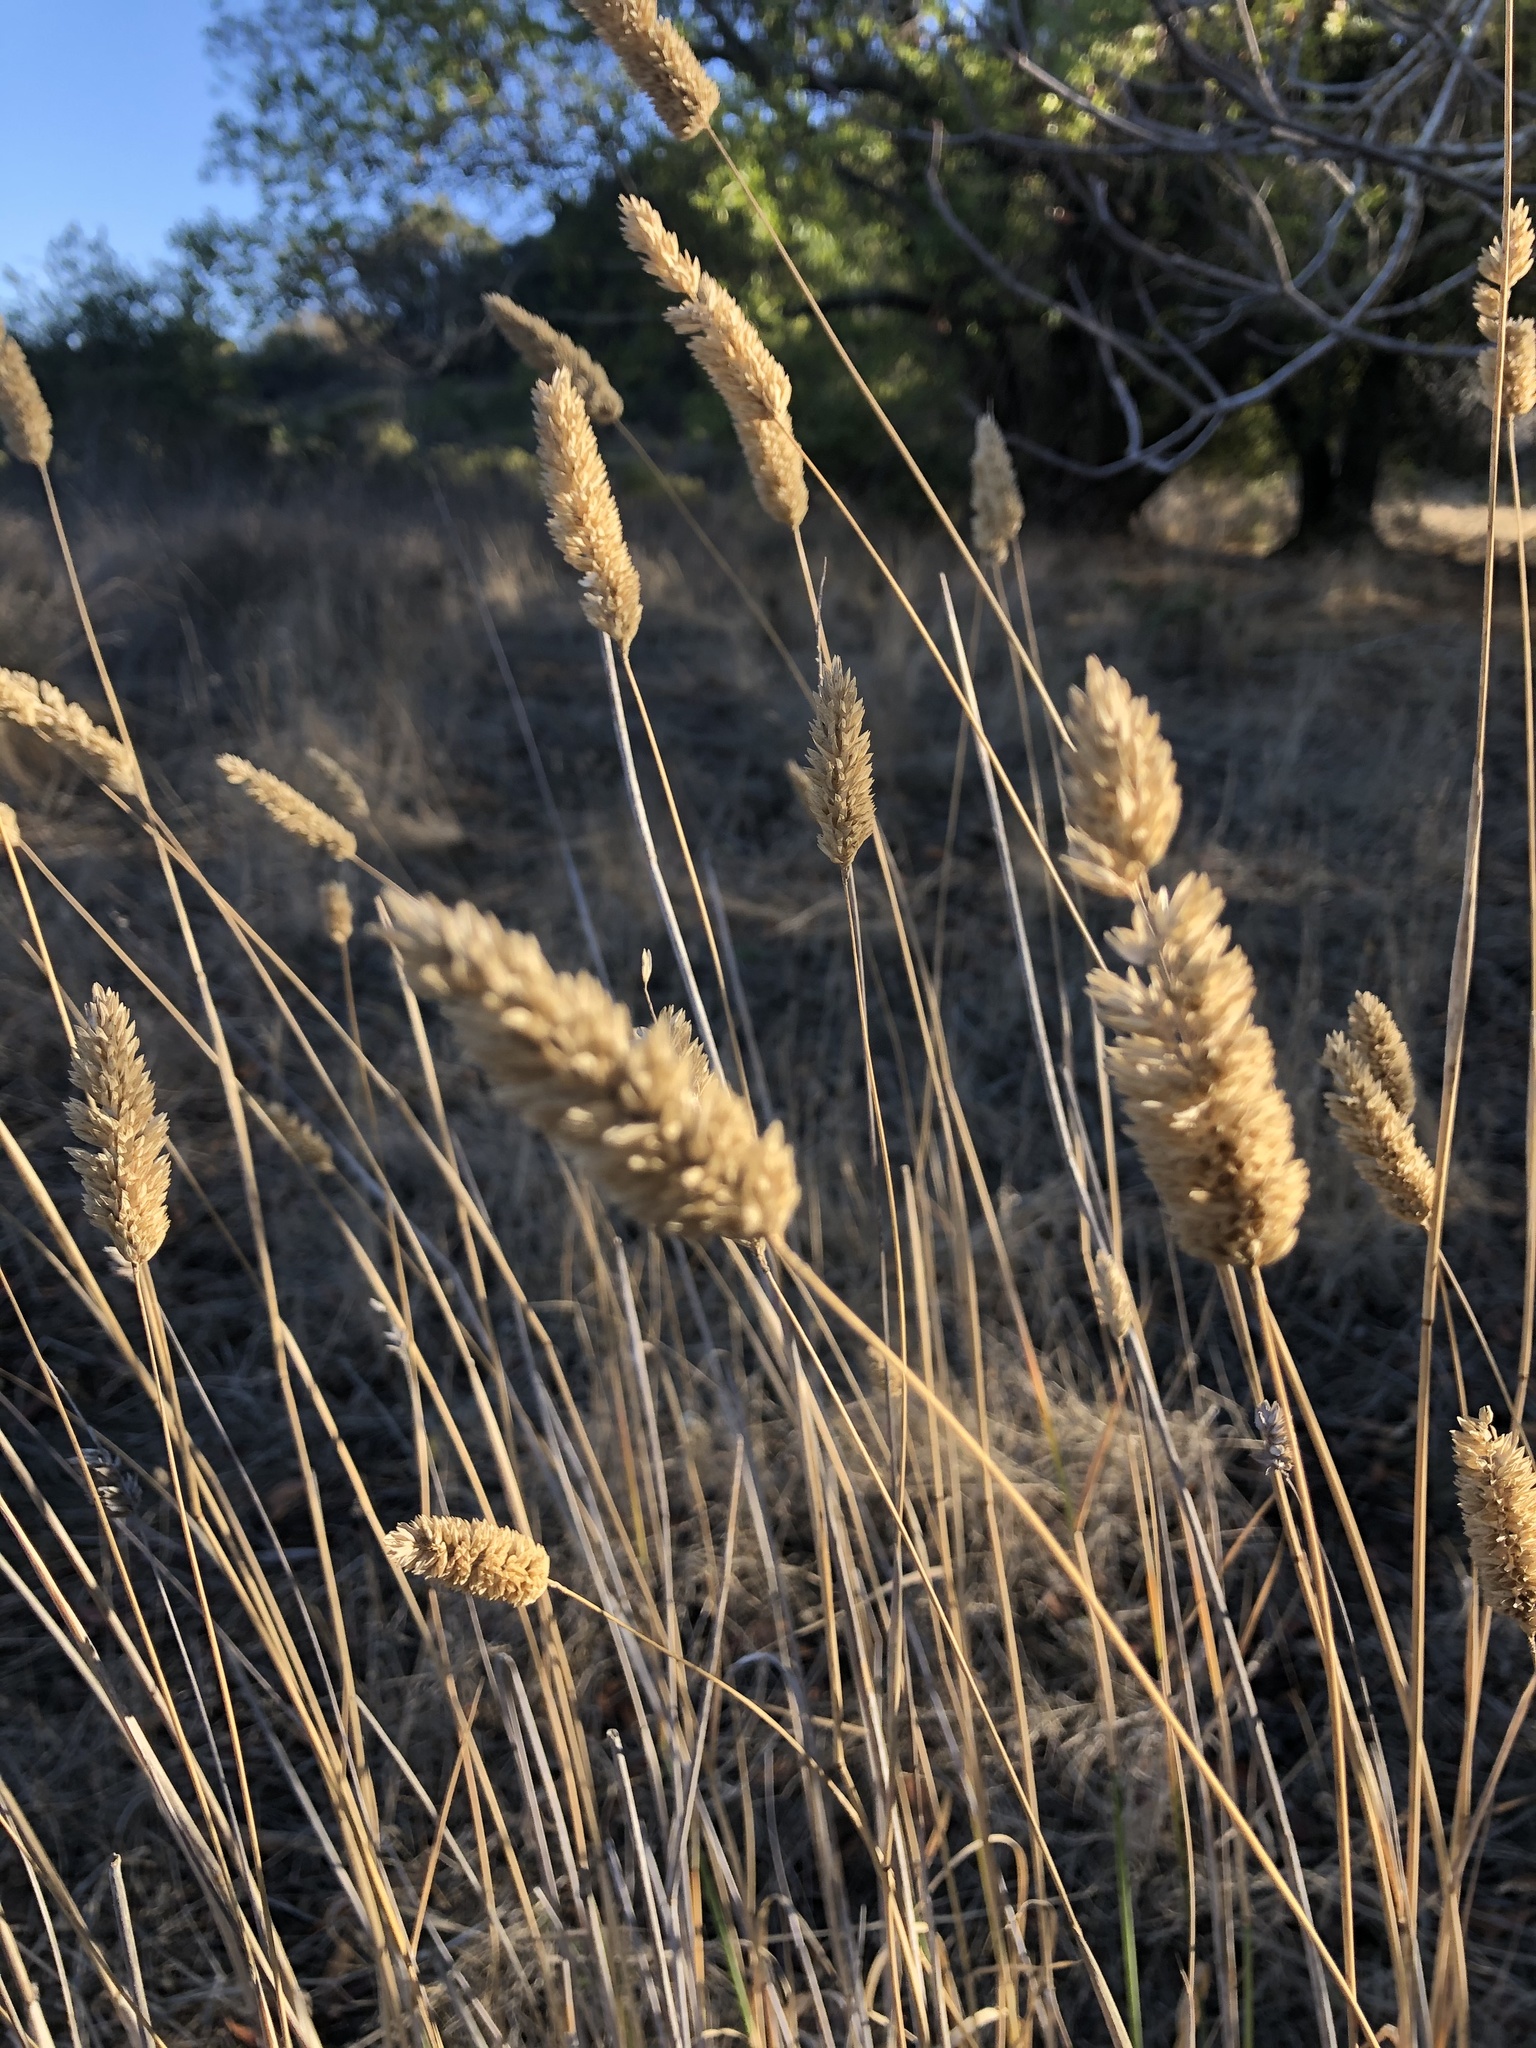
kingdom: Plantae
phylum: Tracheophyta
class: Liliopsida
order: Poales
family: Poaceae
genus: Phalaris
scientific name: Phalaris aquatica
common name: Bulbous canary-grass
